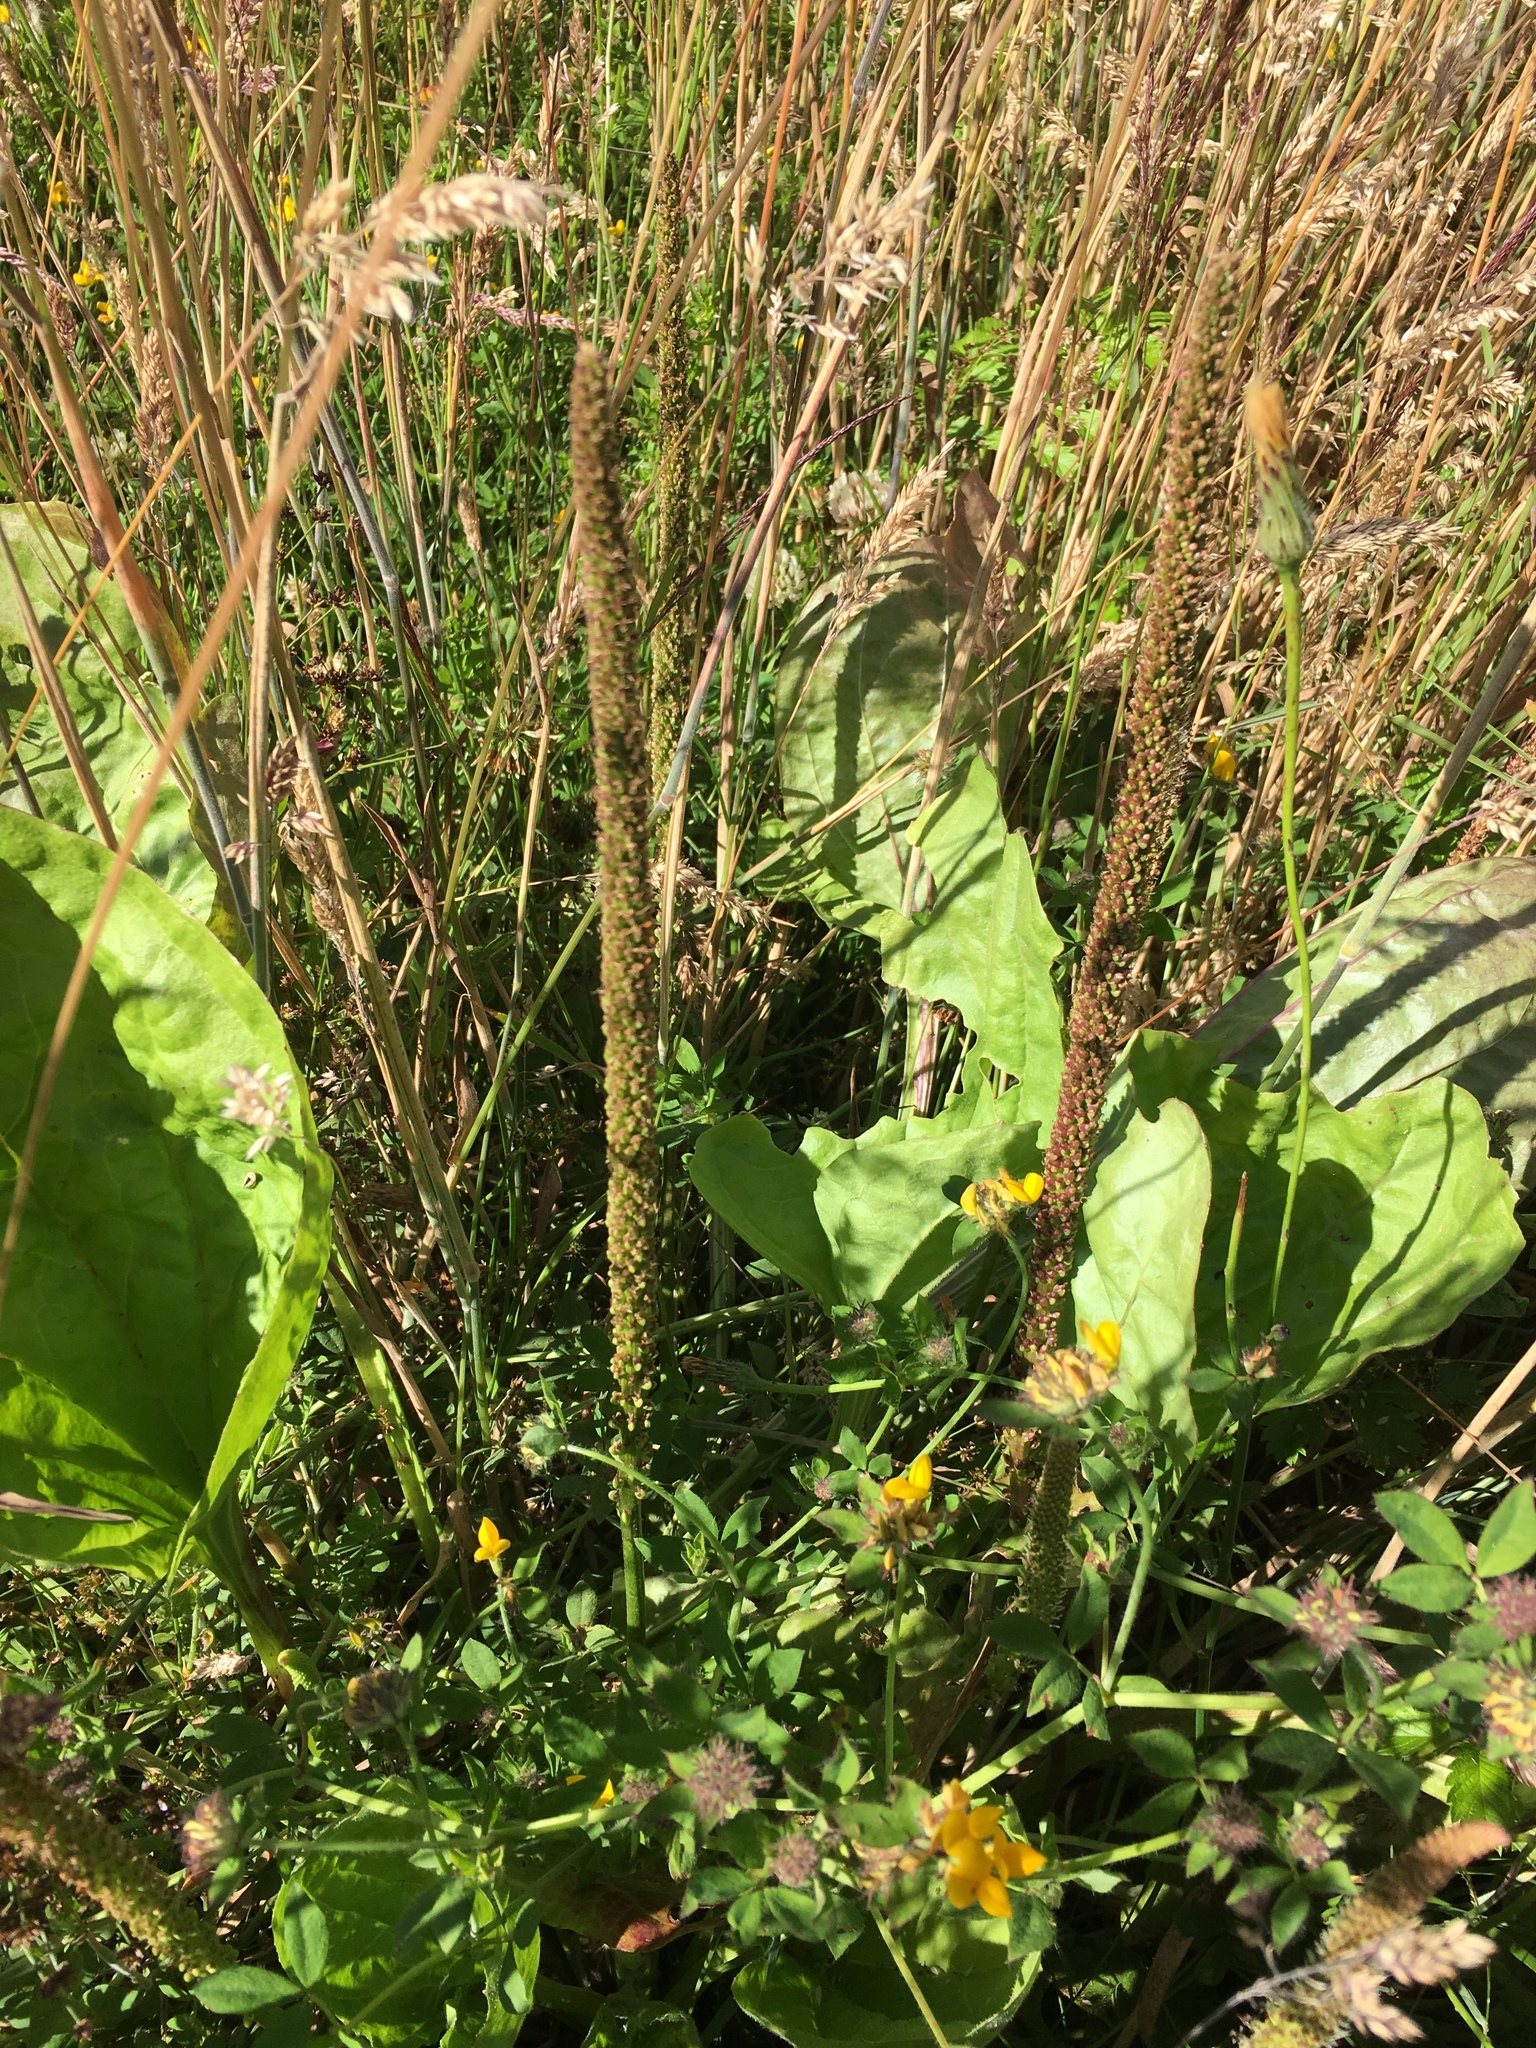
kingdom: Plantae
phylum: Tracheophyta
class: Magnoliopsida
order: Lamiales
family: Plantaginaceae
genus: Plantago
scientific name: Plantago major
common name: Common plantain
